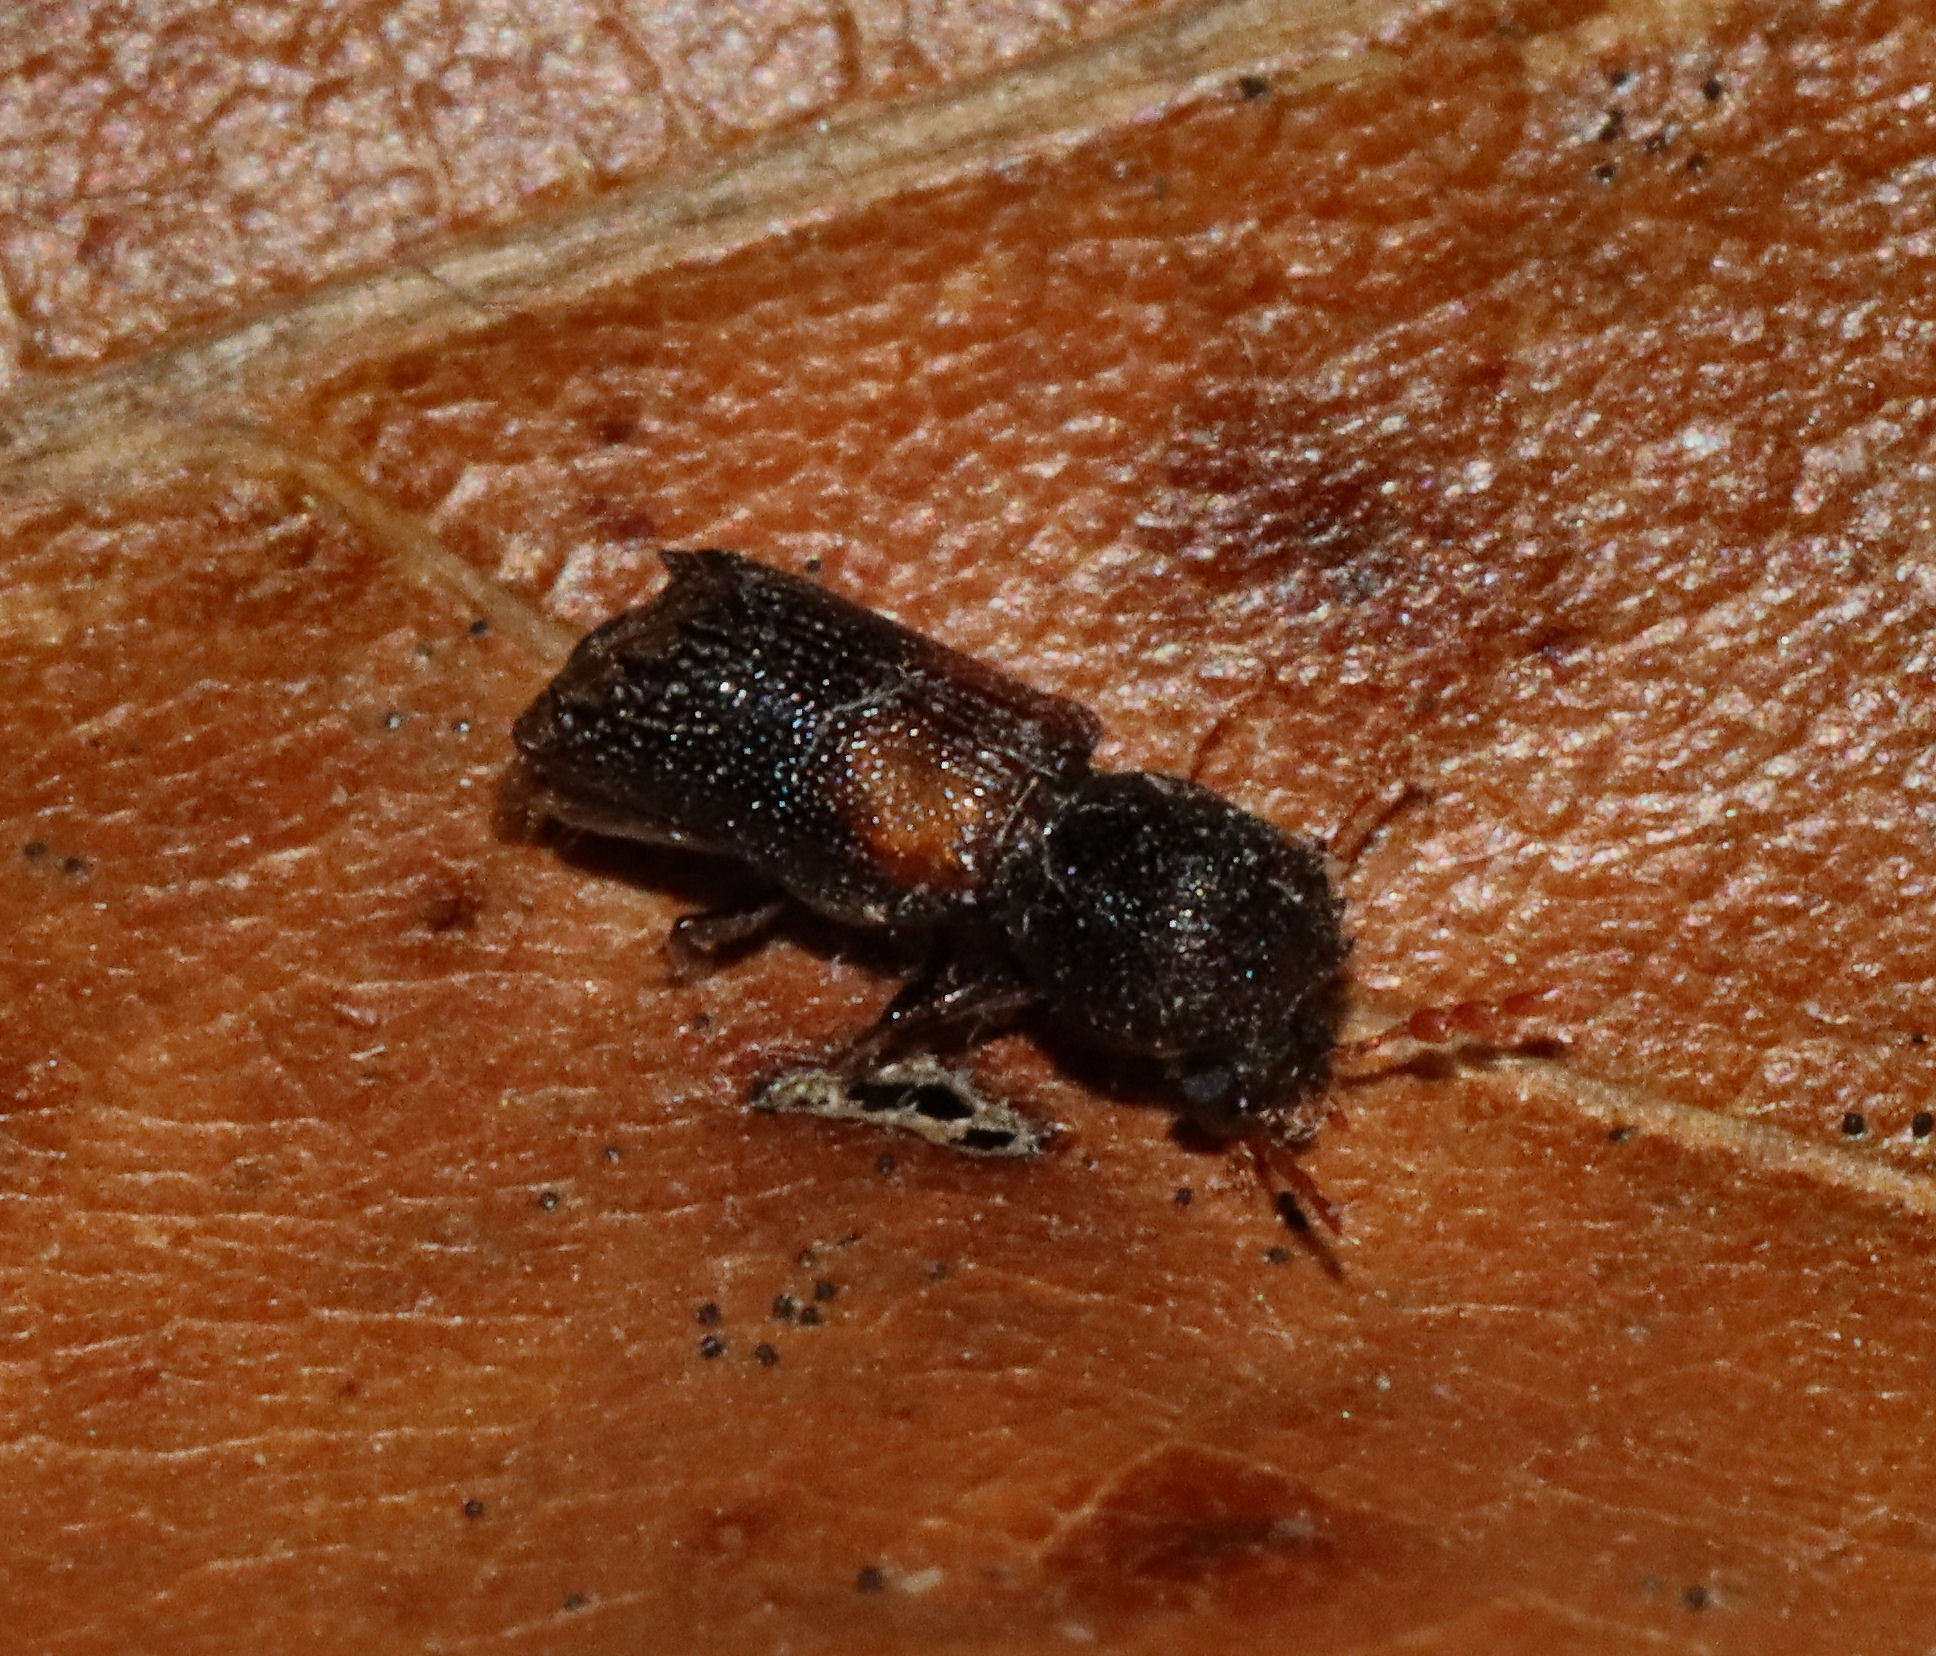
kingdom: Animalia
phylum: Arthropoda
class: Insecta
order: Coleoptera
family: Bostrichidae
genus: Xylobiops
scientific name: Xylobiops basilaris
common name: Red-shouldered bostrichid
